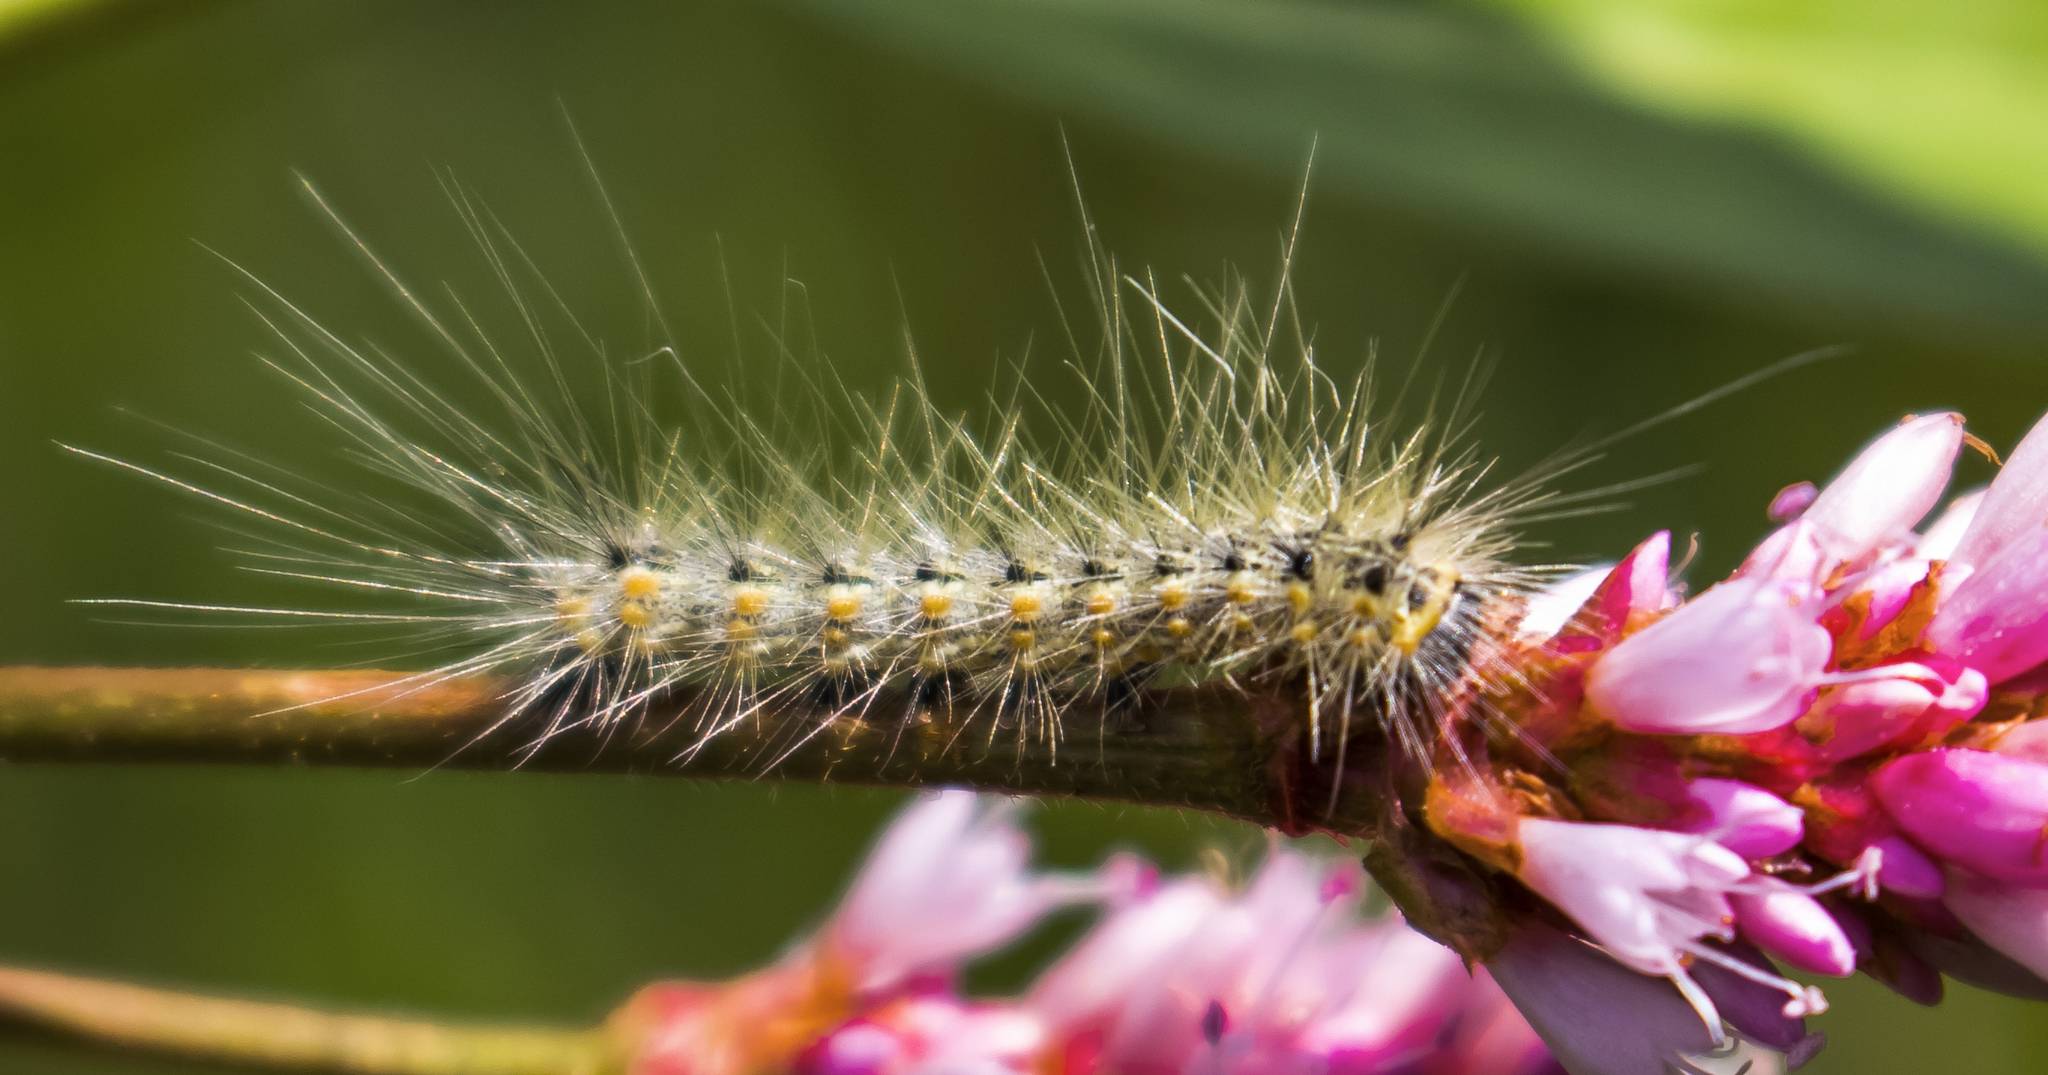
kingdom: Animalia
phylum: Arthropoda
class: Insecta
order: Lepidoptera
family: Erebidae
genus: Hyphantria
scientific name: Hyphantria cunea
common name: American white moth
